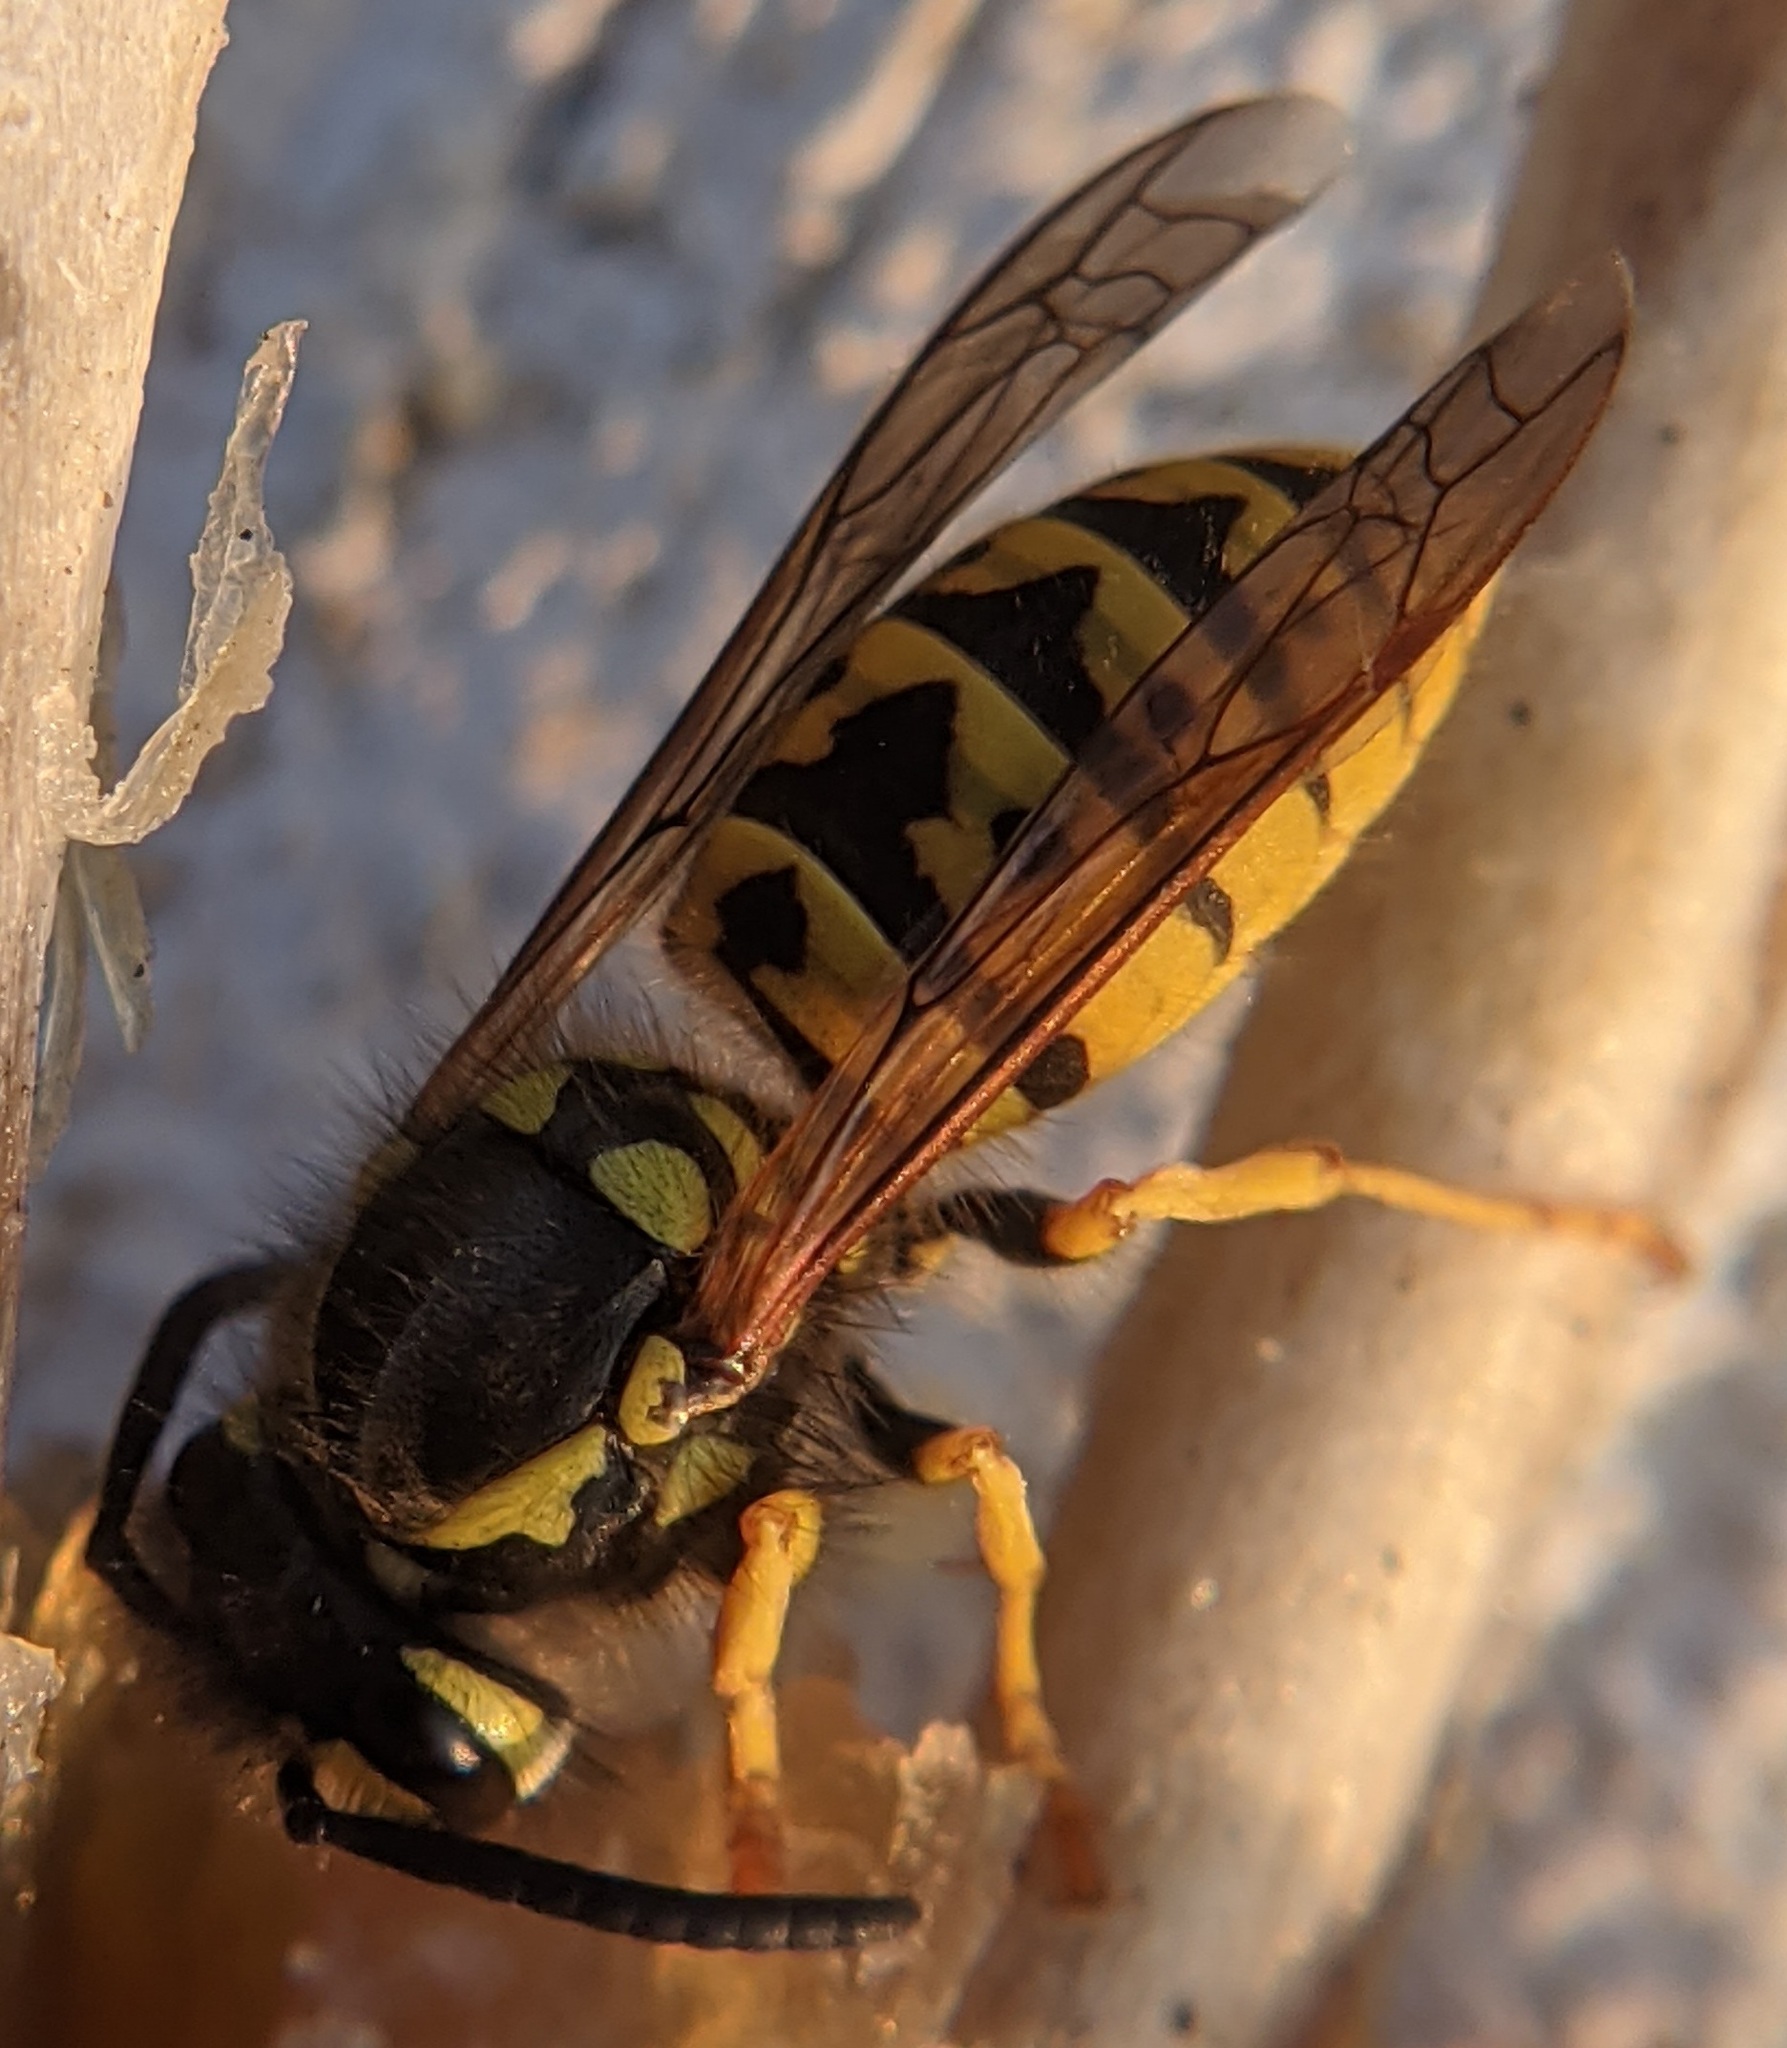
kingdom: Animalia
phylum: Arthropoda
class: Insecta
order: Hymenoptera
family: Vespidae
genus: Vespula
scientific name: Vespula germanica
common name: German wasp
